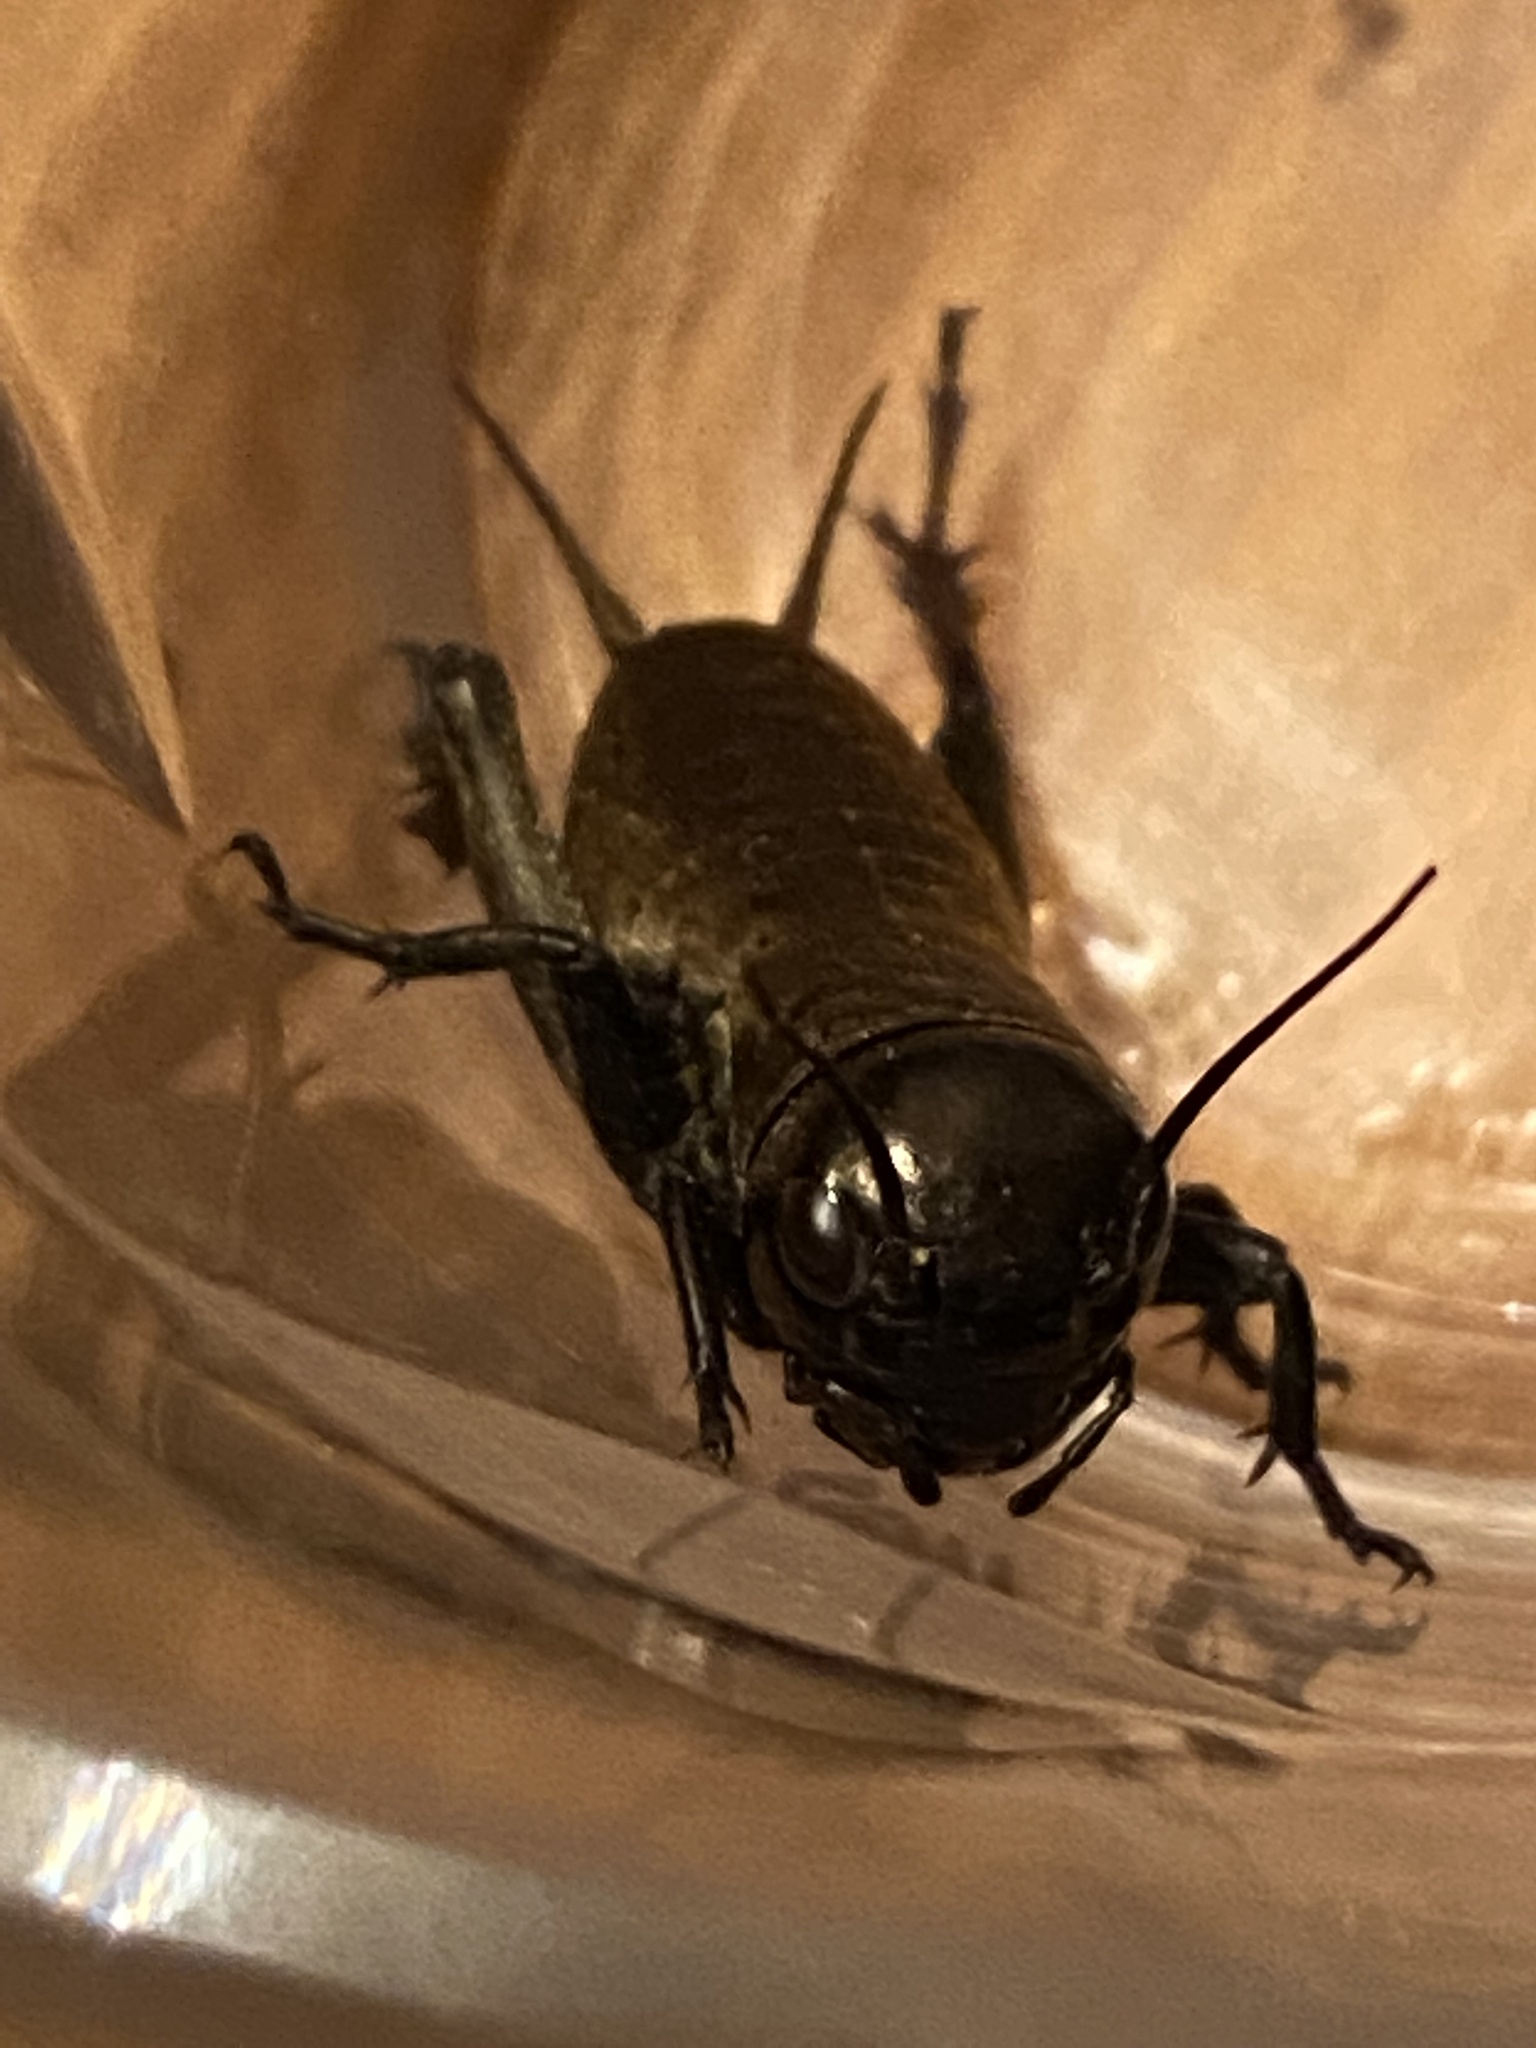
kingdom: Animalia
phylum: Arthropoda
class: Insecta
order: Orthoptera
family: Gryllidae
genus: Gryllus
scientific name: Gryllus campestris
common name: Field cricket
